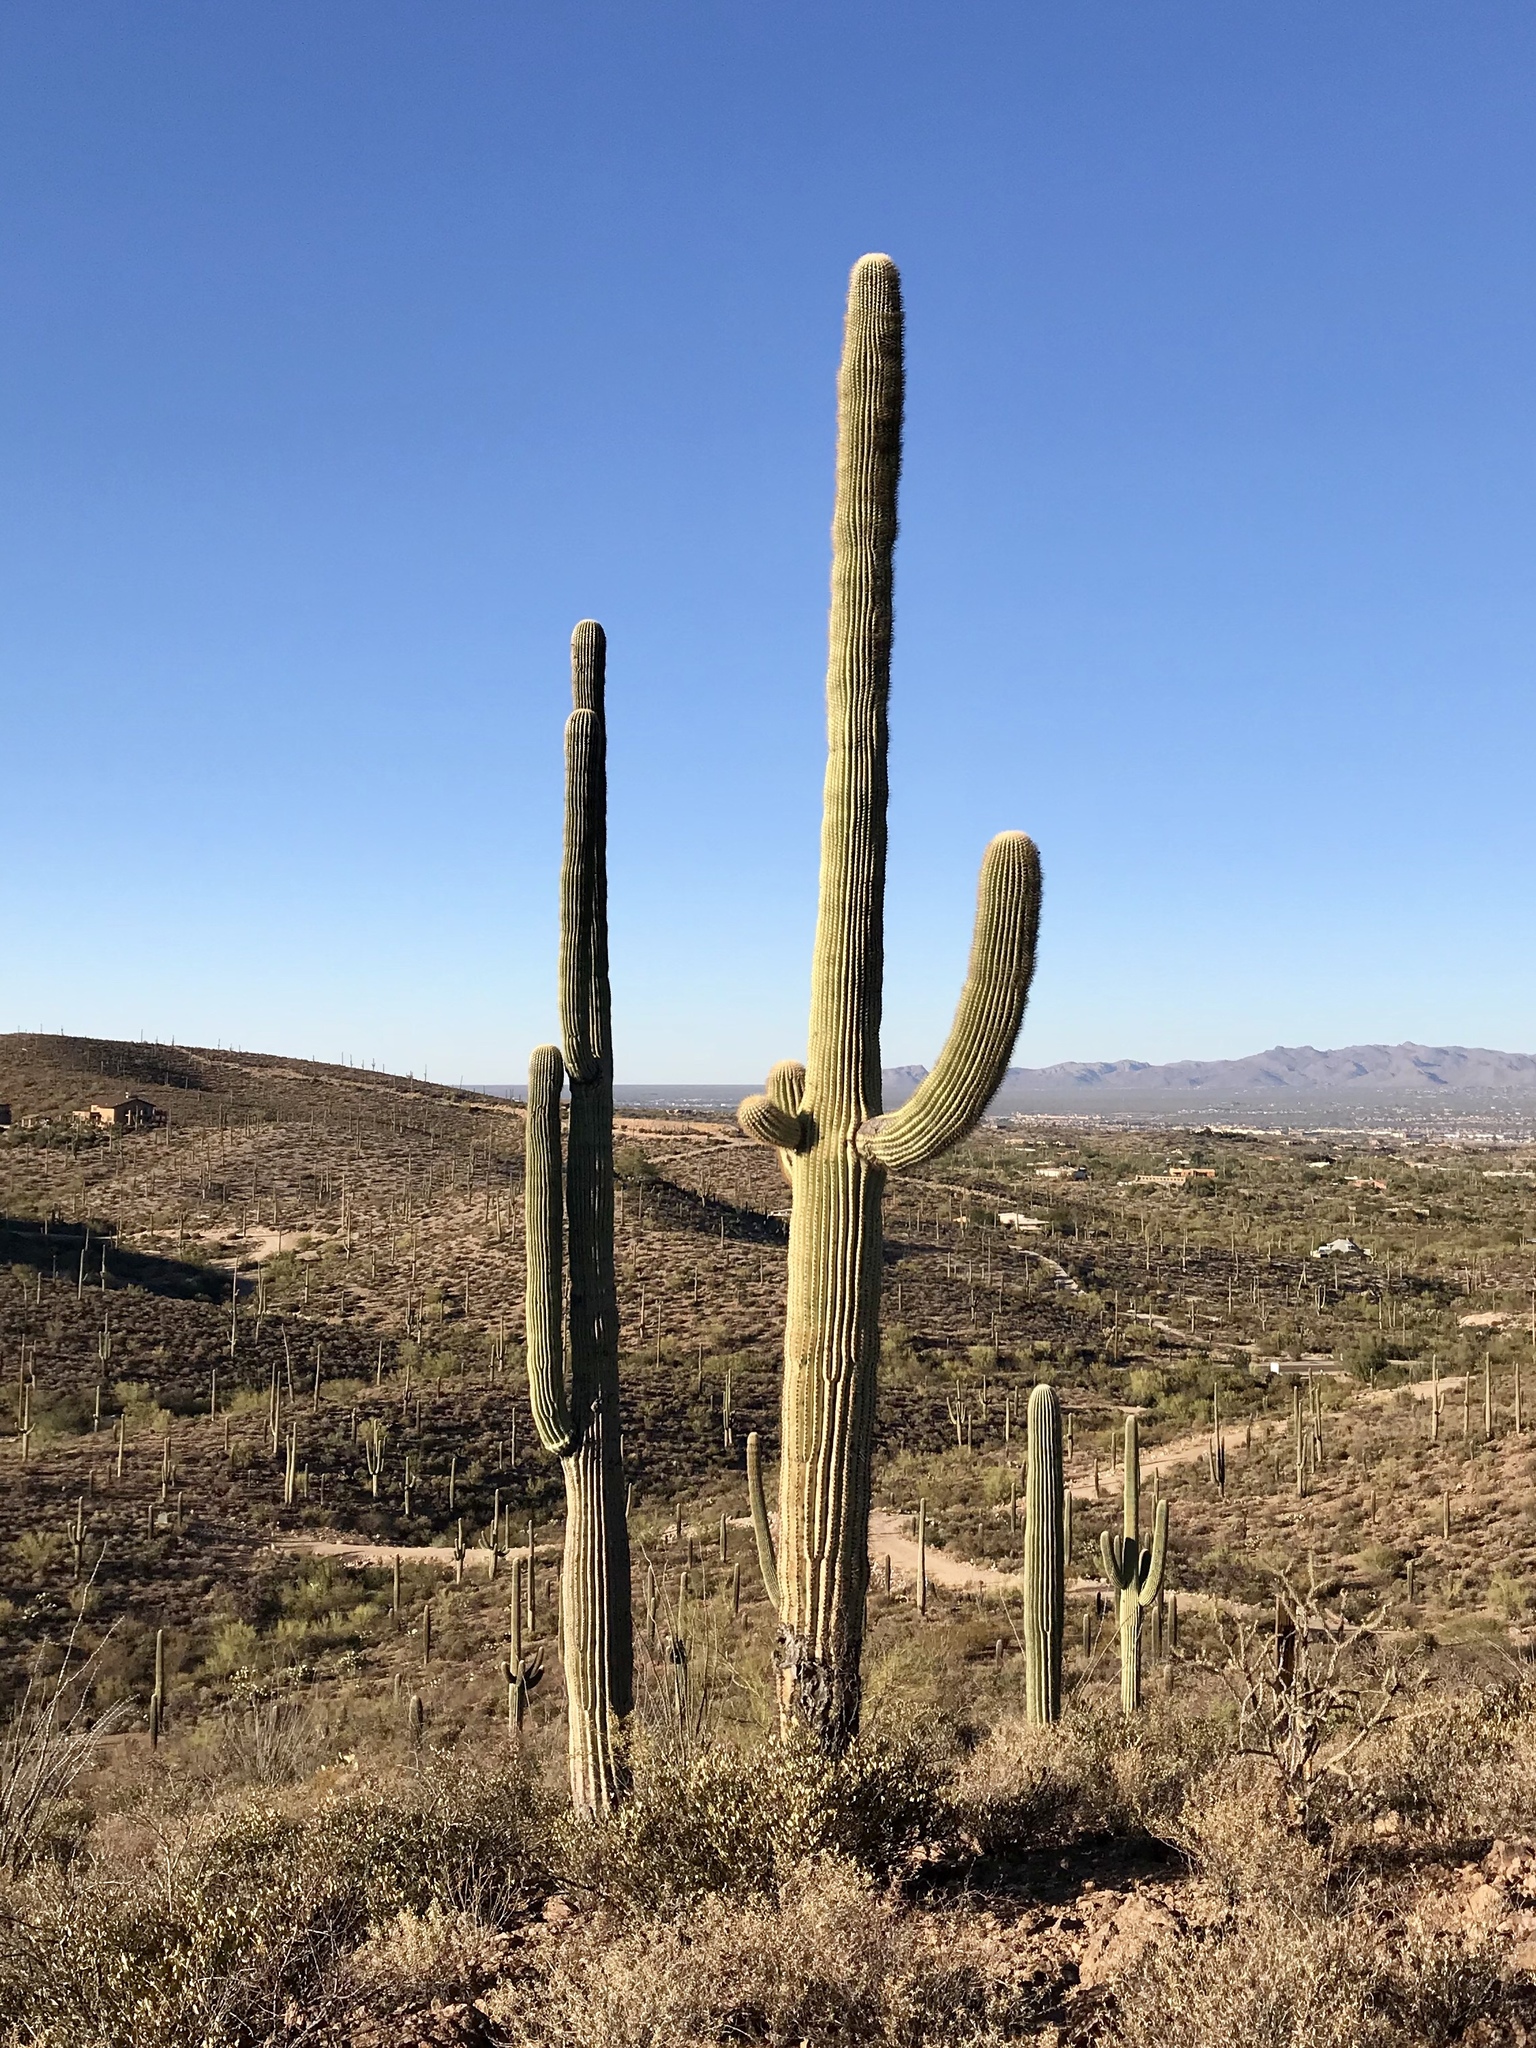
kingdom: Plantae
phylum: Tracheophyta
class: Magnoliopsida
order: Caryophyllales
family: Cactaceae
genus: Carnegiea
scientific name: Carnegiea gigantea
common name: Saguaro
